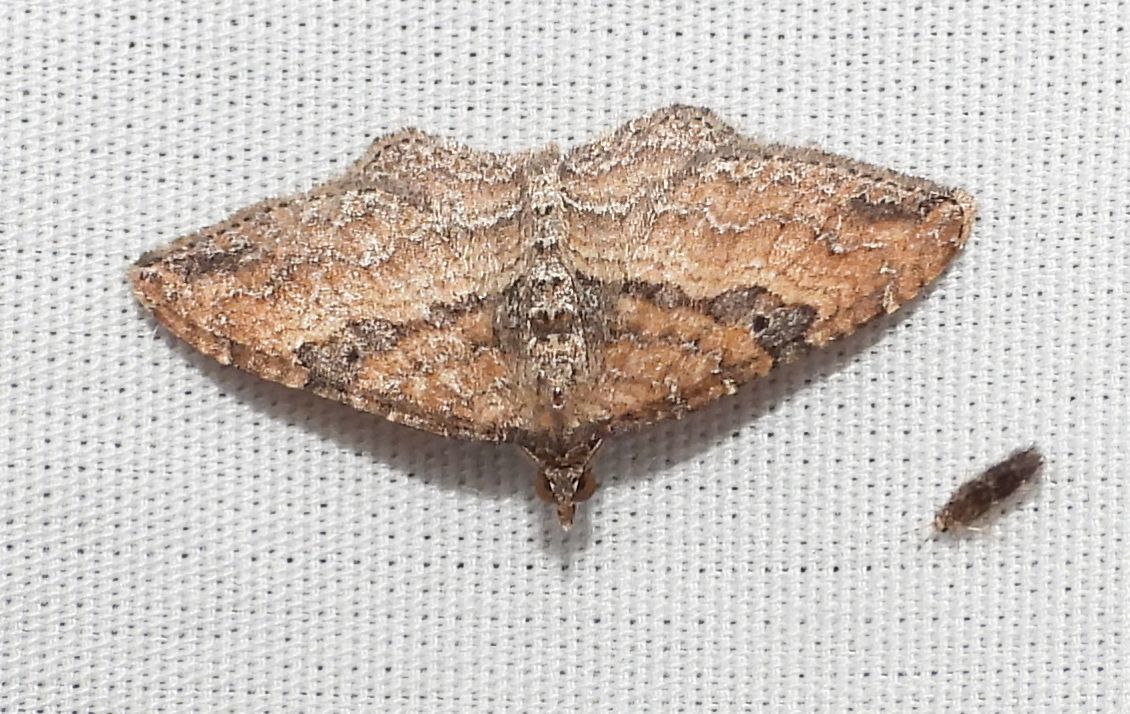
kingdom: Animalia
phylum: Arthropoda
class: Insecta
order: Lepidoptera
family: Geometridae
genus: Orthonama
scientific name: Orthonama obstipata
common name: The gem
